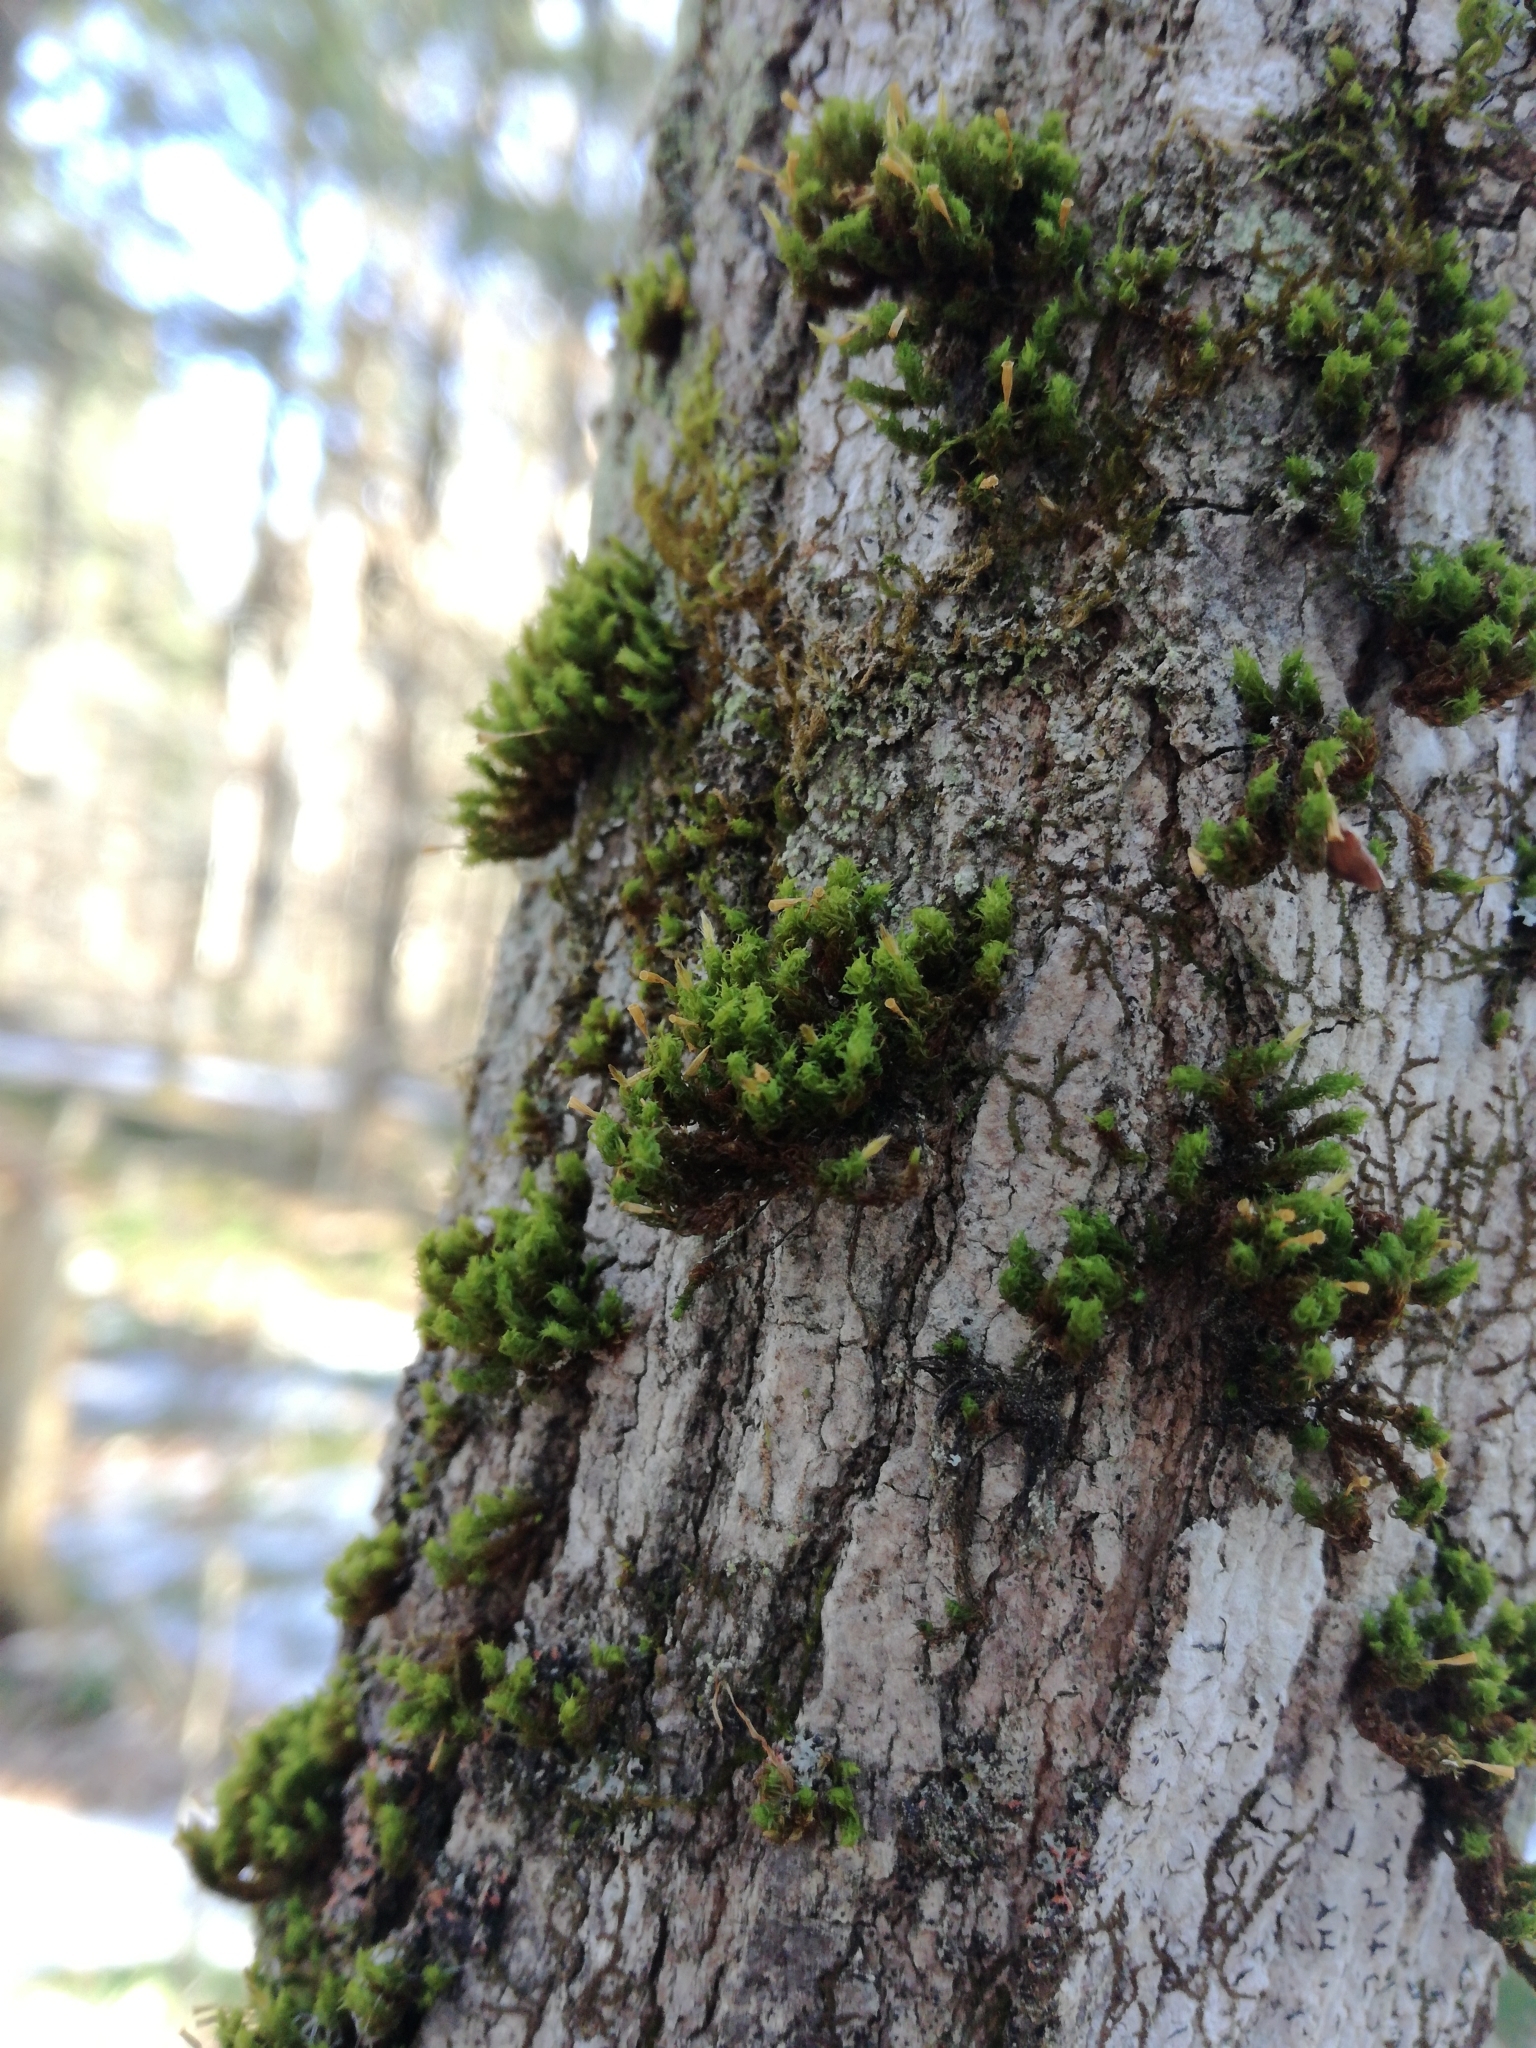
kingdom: Plantae
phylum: Bryophyta
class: Bryopsida
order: Orthotrichales
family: Orthotrichaceae
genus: Ulota
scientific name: Ulota crispa
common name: Crisped pincushion moss
